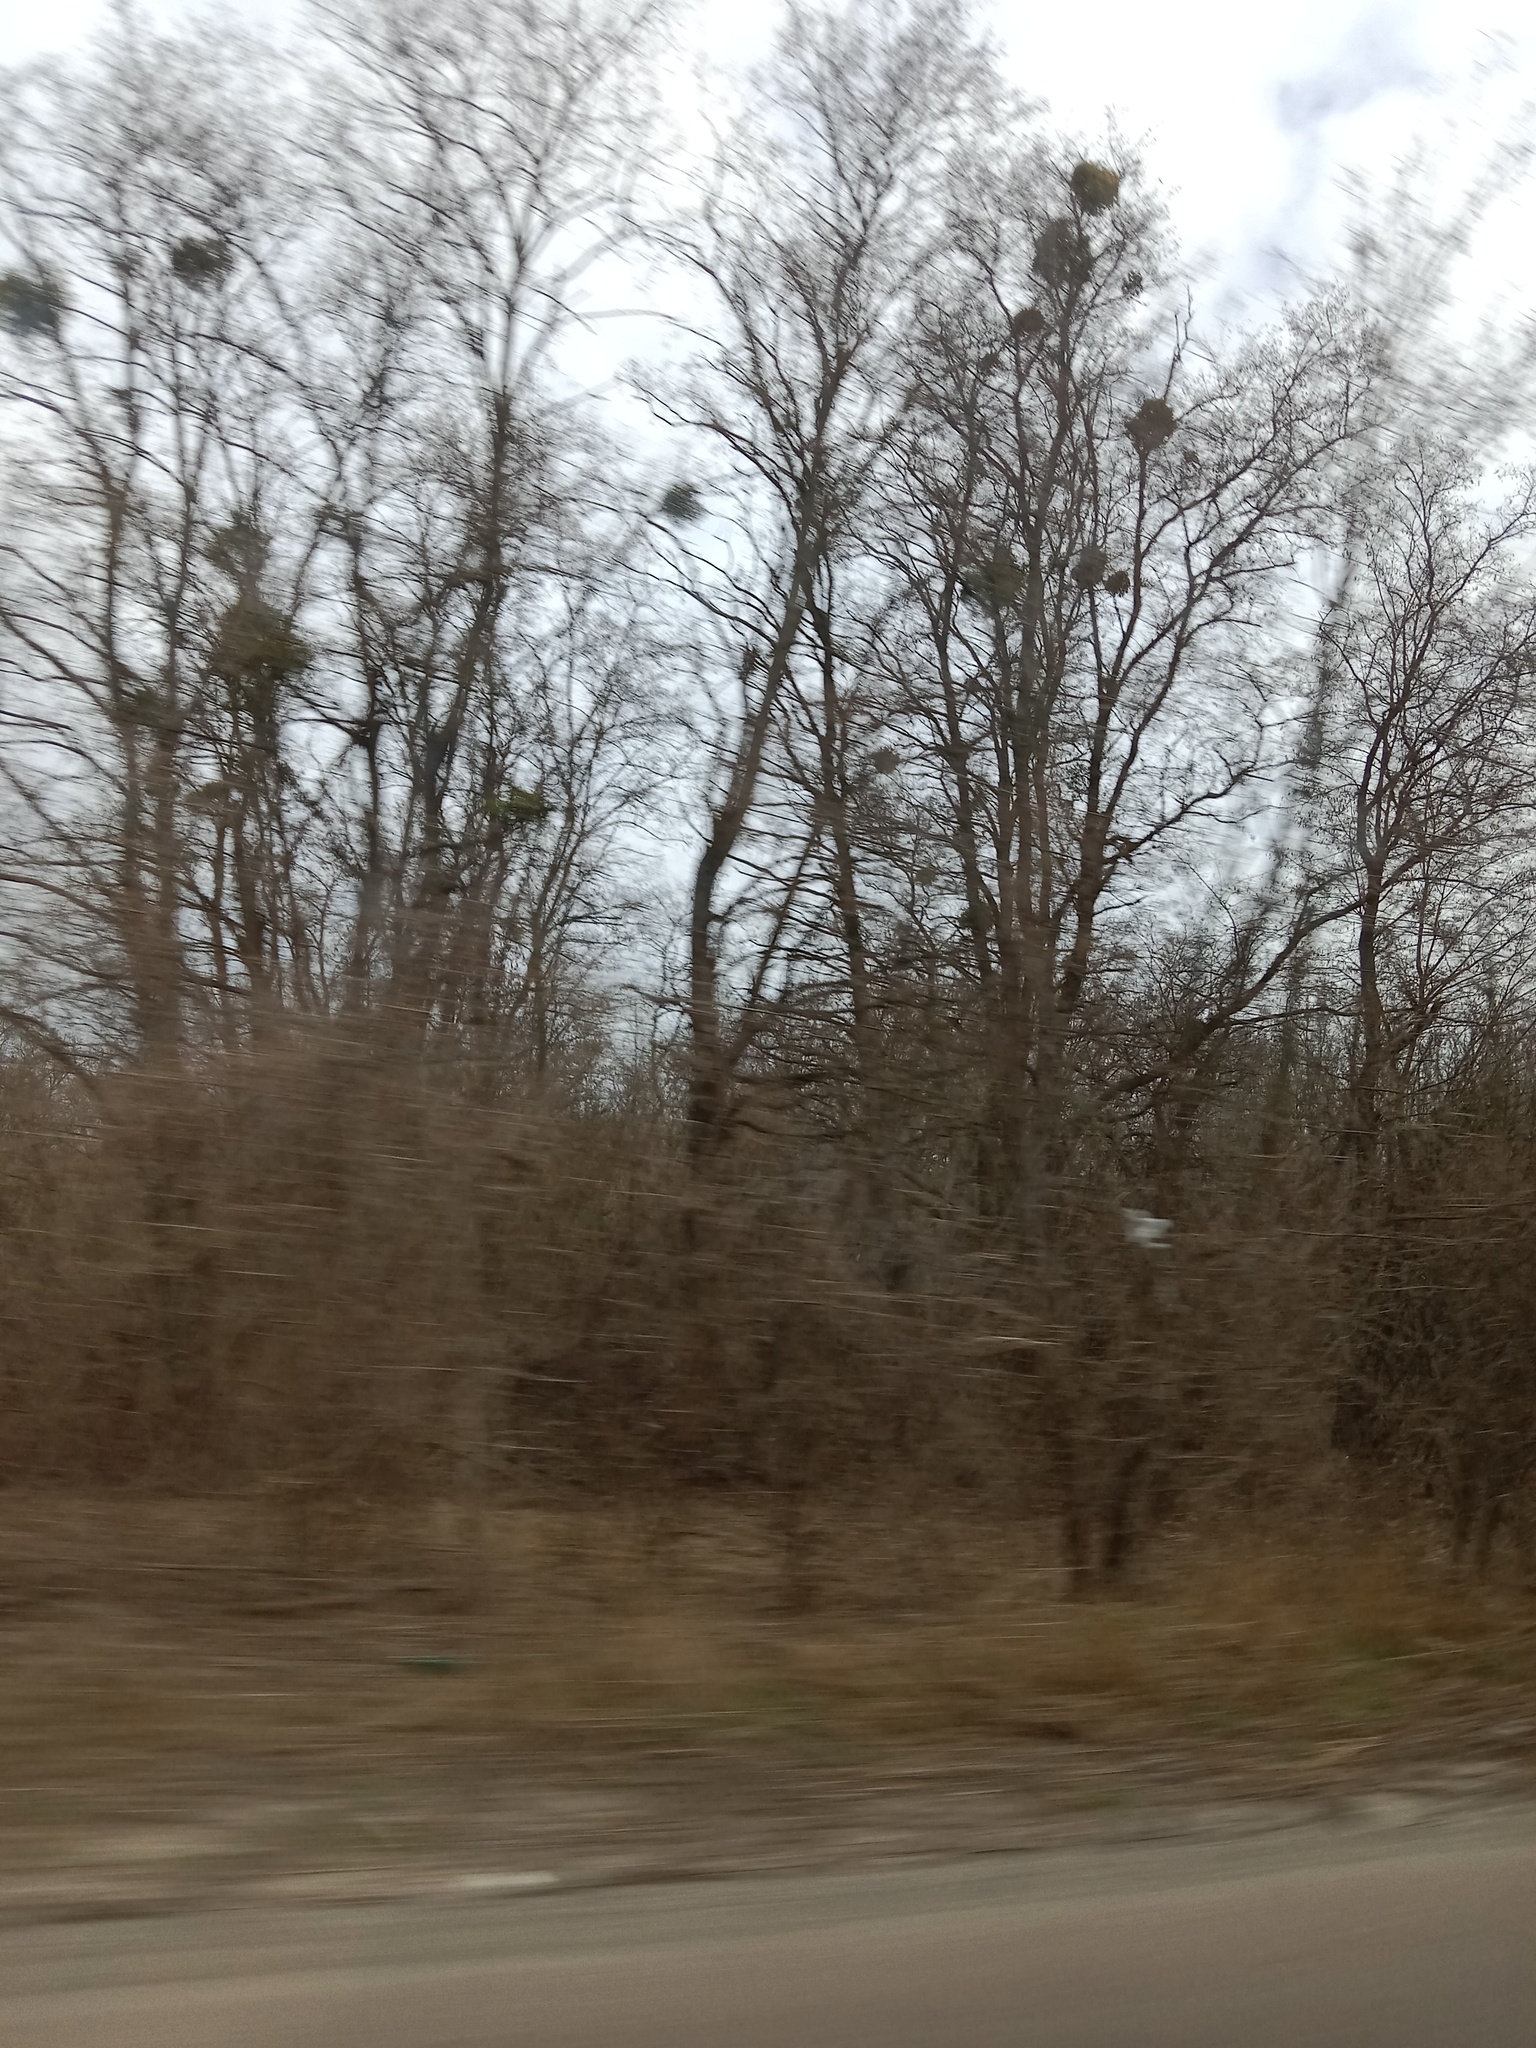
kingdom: Plantae
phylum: Tracheophyta
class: Magnoliopsida
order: Santalales
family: Viscaceae
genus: Viscum
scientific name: Viscum album
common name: Mistletoe
